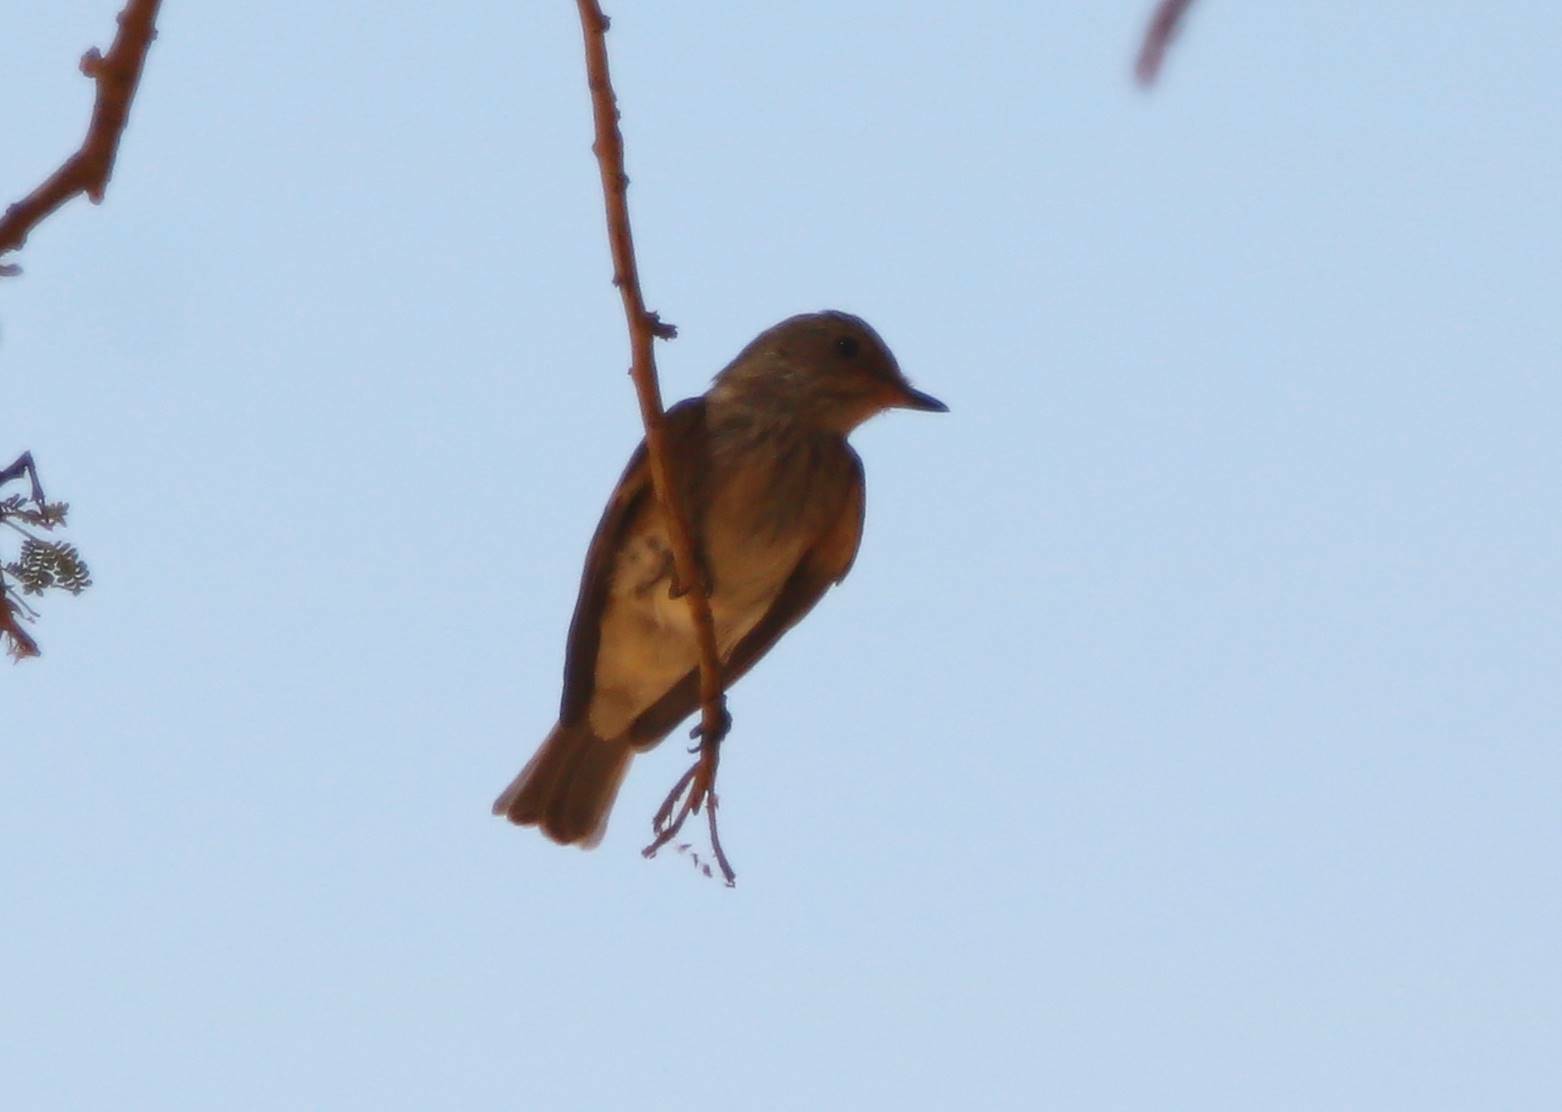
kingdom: Animalia
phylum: Chordata
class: Aves
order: Passeriformes
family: Muscicapidae
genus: Muscicapa
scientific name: Muscicapa striata
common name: Spotted flycatcher
